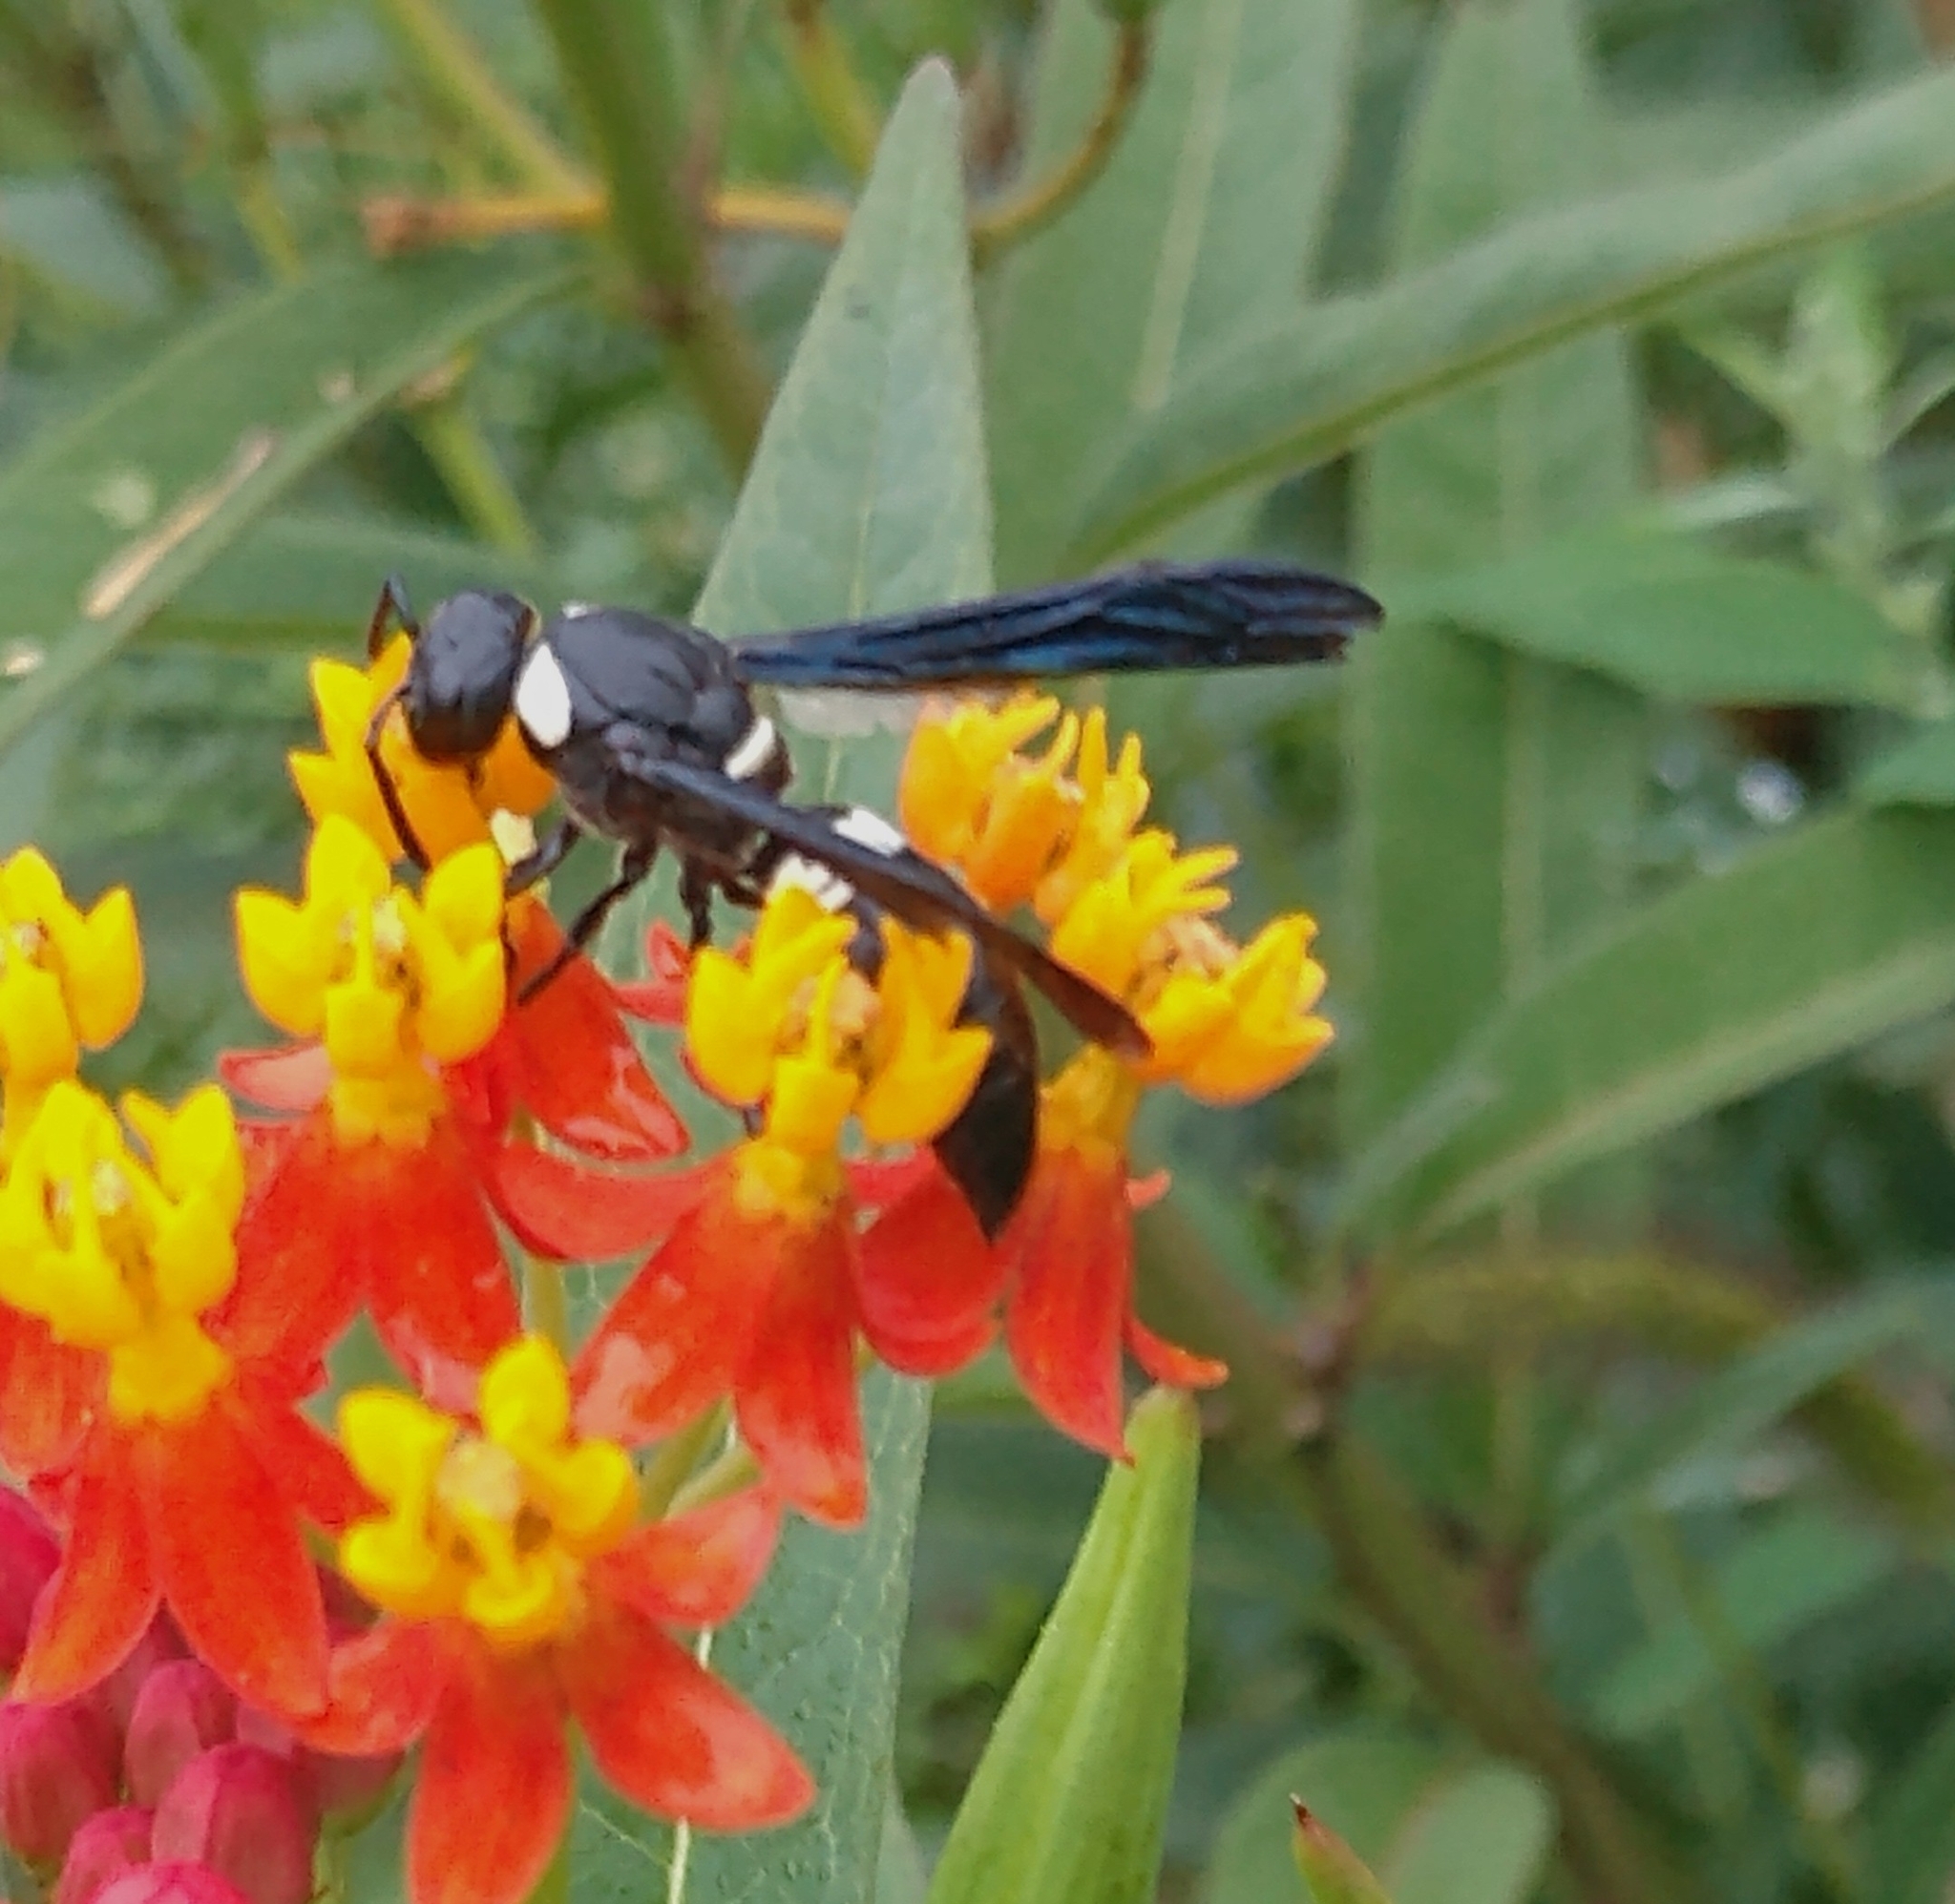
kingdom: Animalia
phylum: Arthropoda
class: Insecta
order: Hymenoptera
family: Eumenidae
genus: Monobia
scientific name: Monobia quadridens
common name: Four-toothed mason wasp
